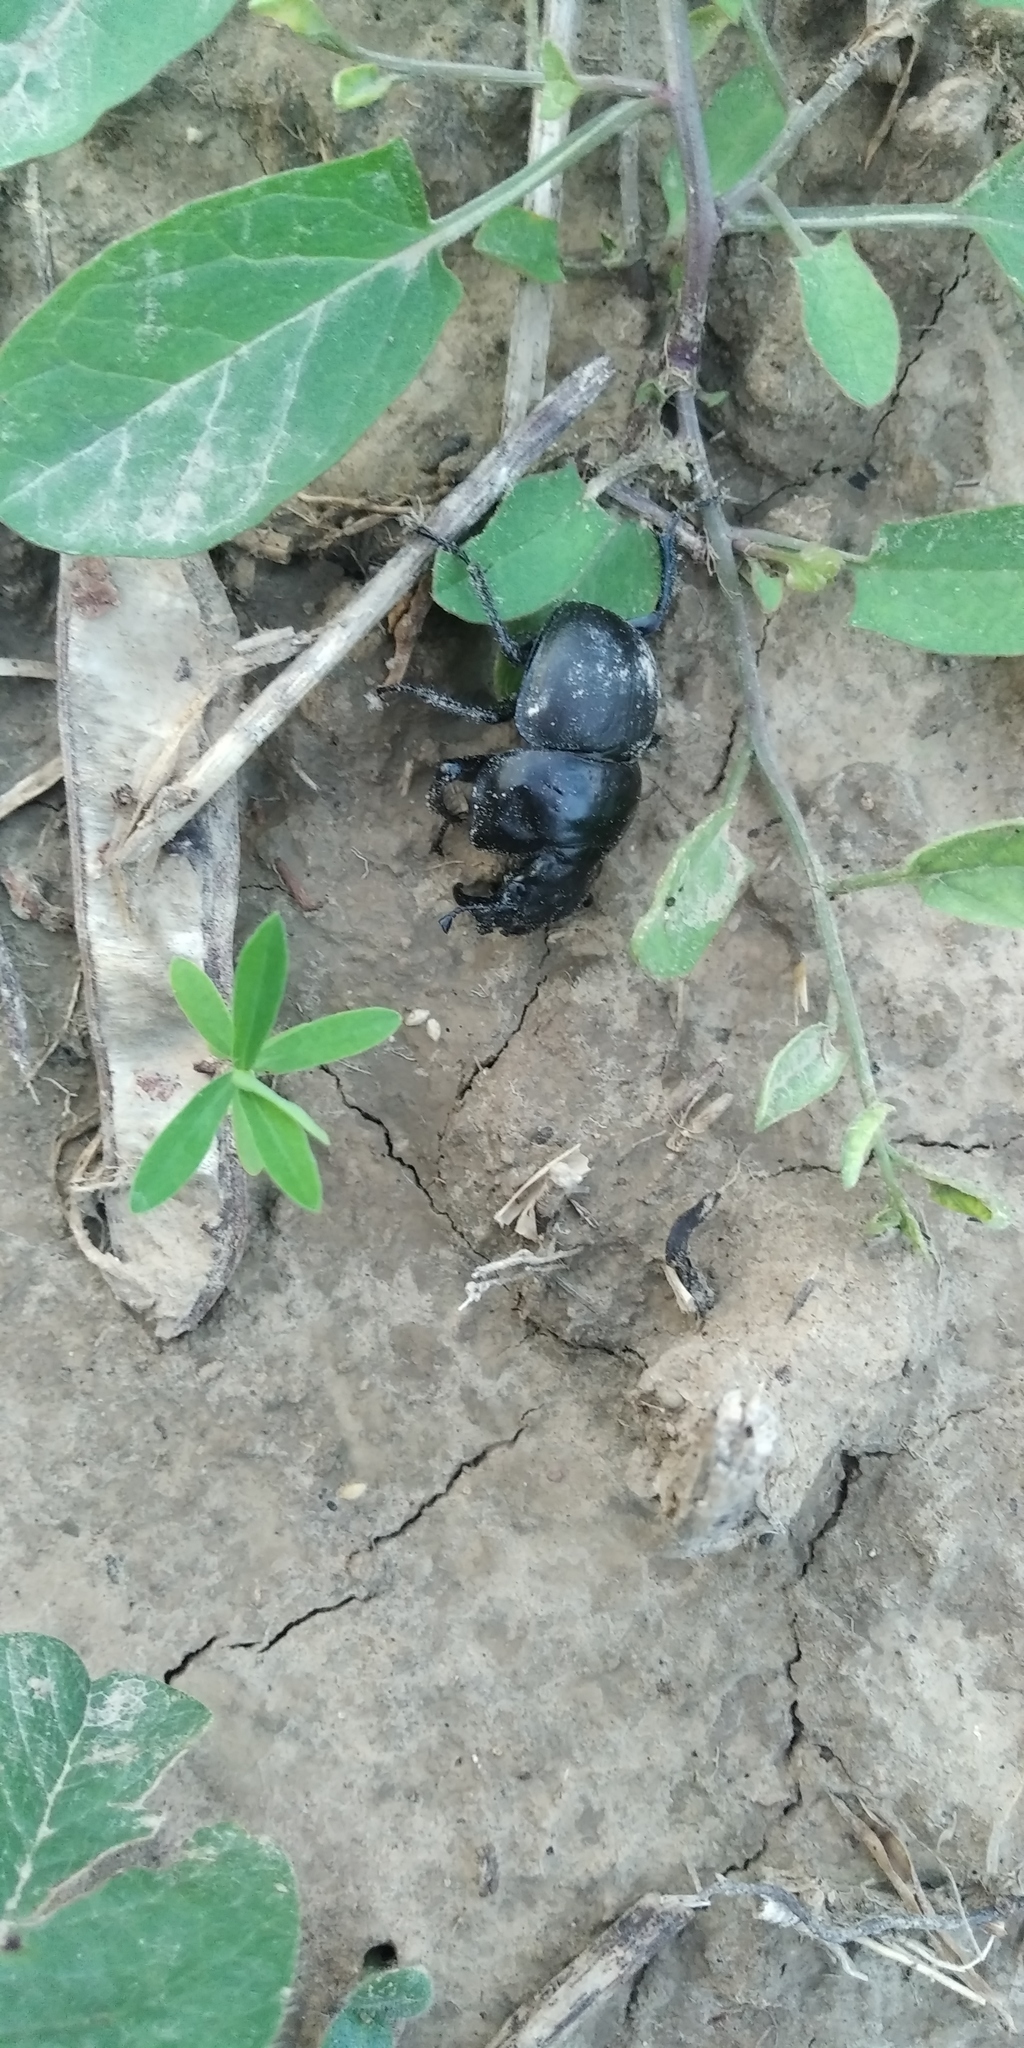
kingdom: Animalia
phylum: Arthropoda
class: Insecta
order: Coleoptera
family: Geotrupidae
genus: Lethrus
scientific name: Lethrus apterus
